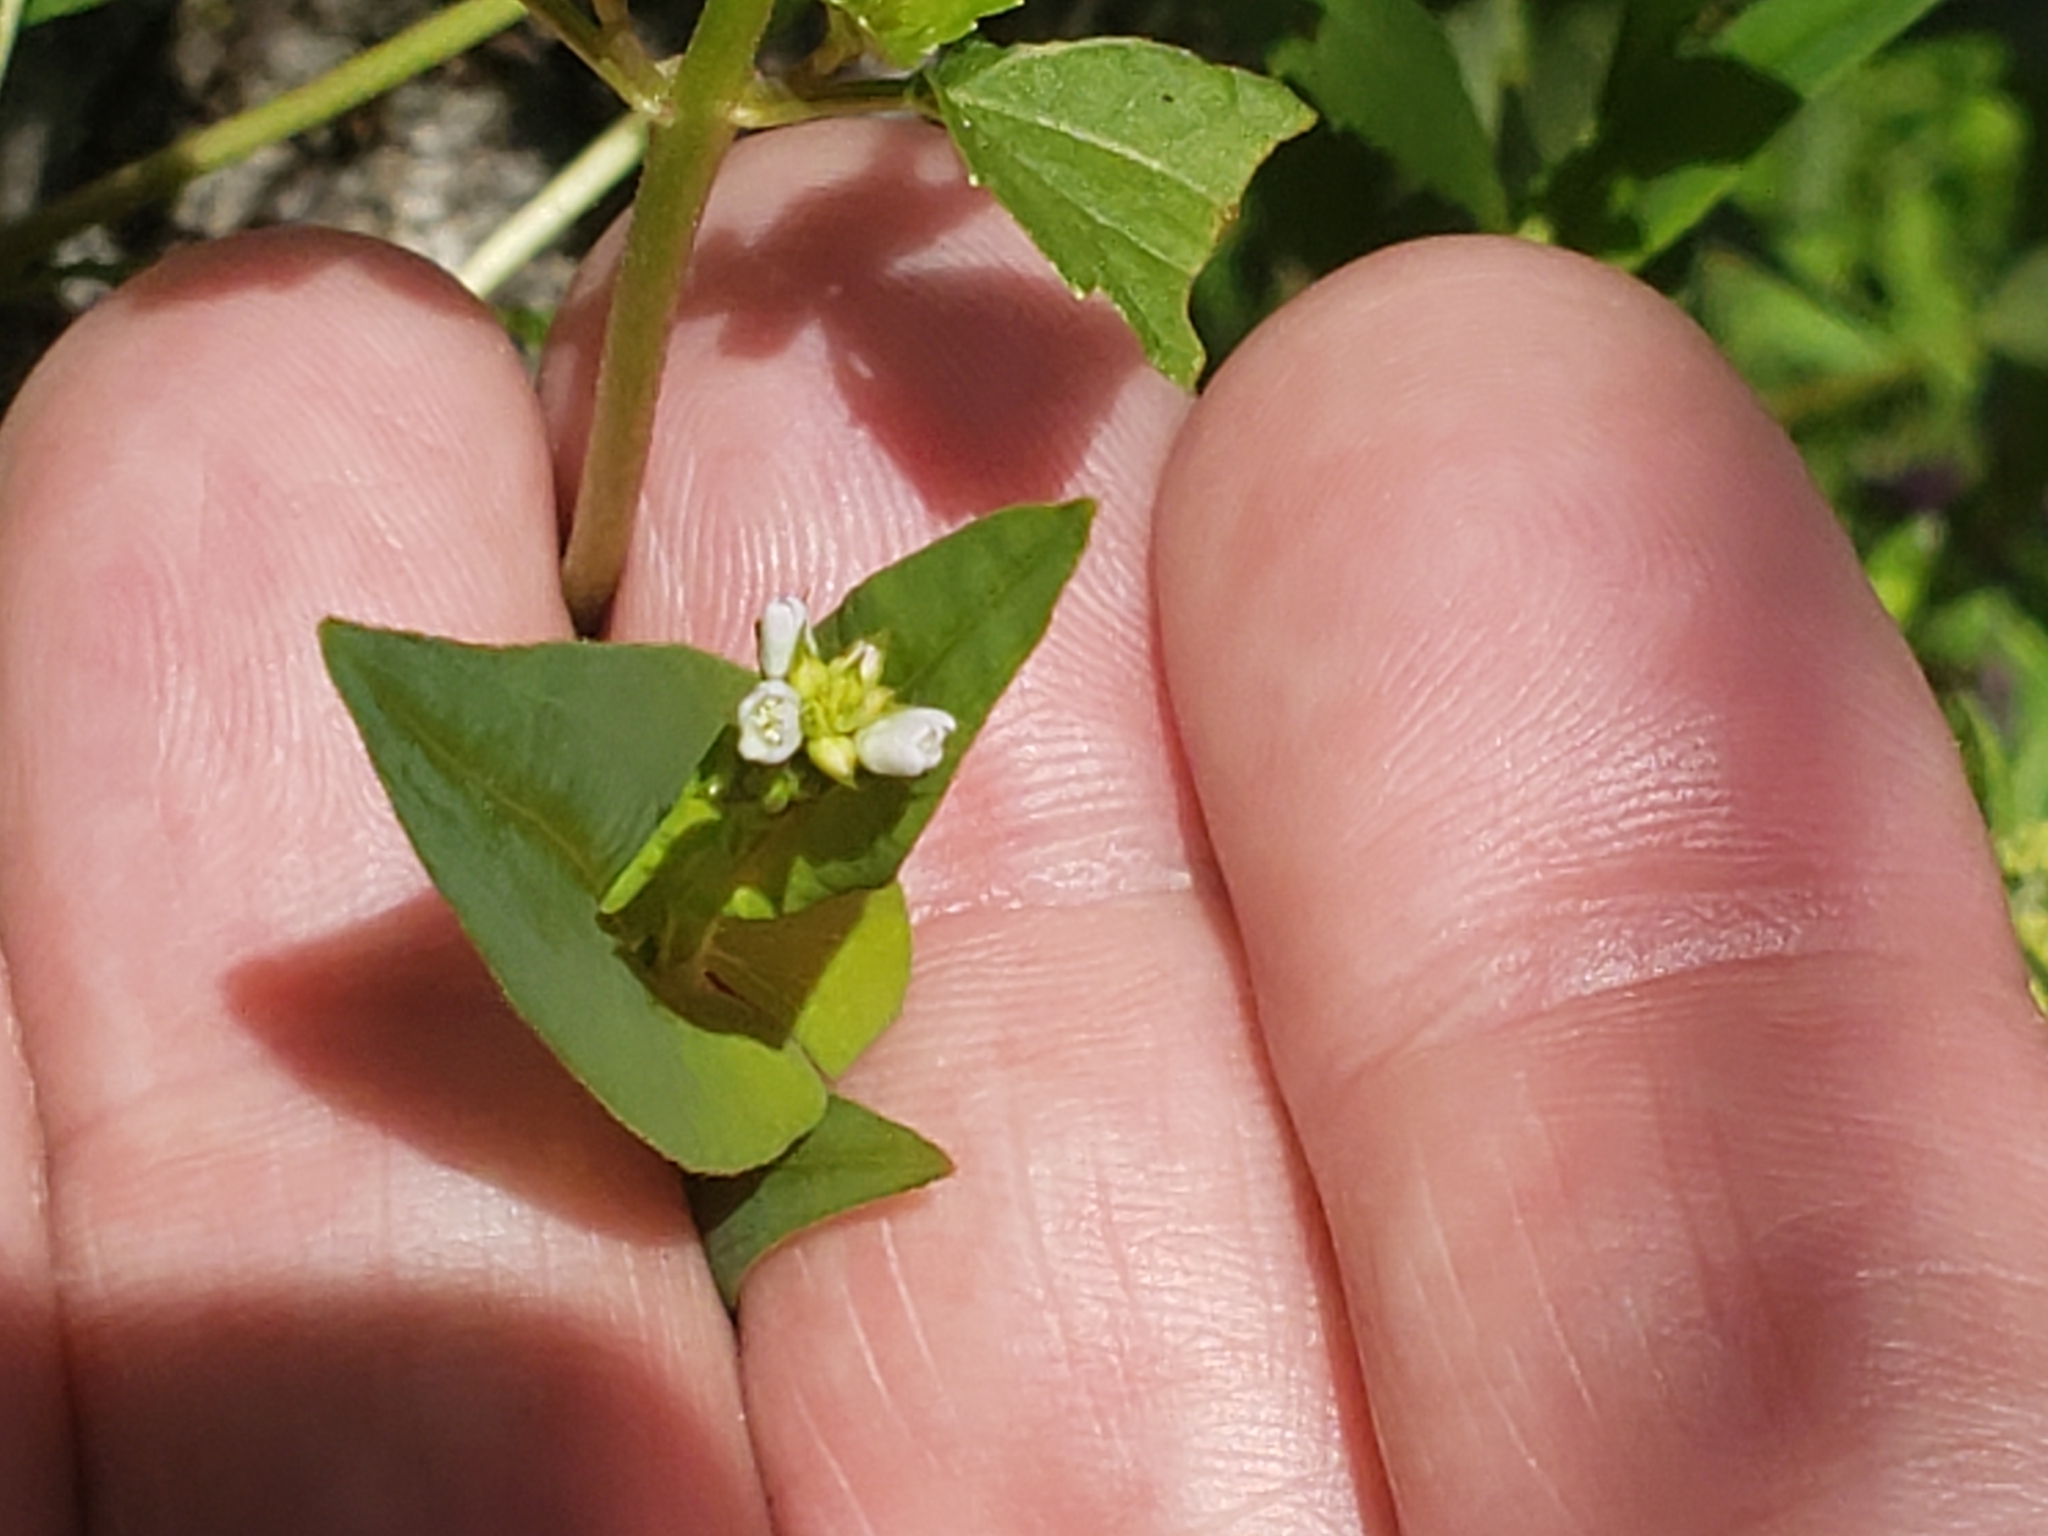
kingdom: Plantae
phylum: Tracheophyta
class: Magnoliopsida
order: Caryophyllales
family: Polygonaceae
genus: Persicaria
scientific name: Persicaria sagittata
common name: American tearthumb
